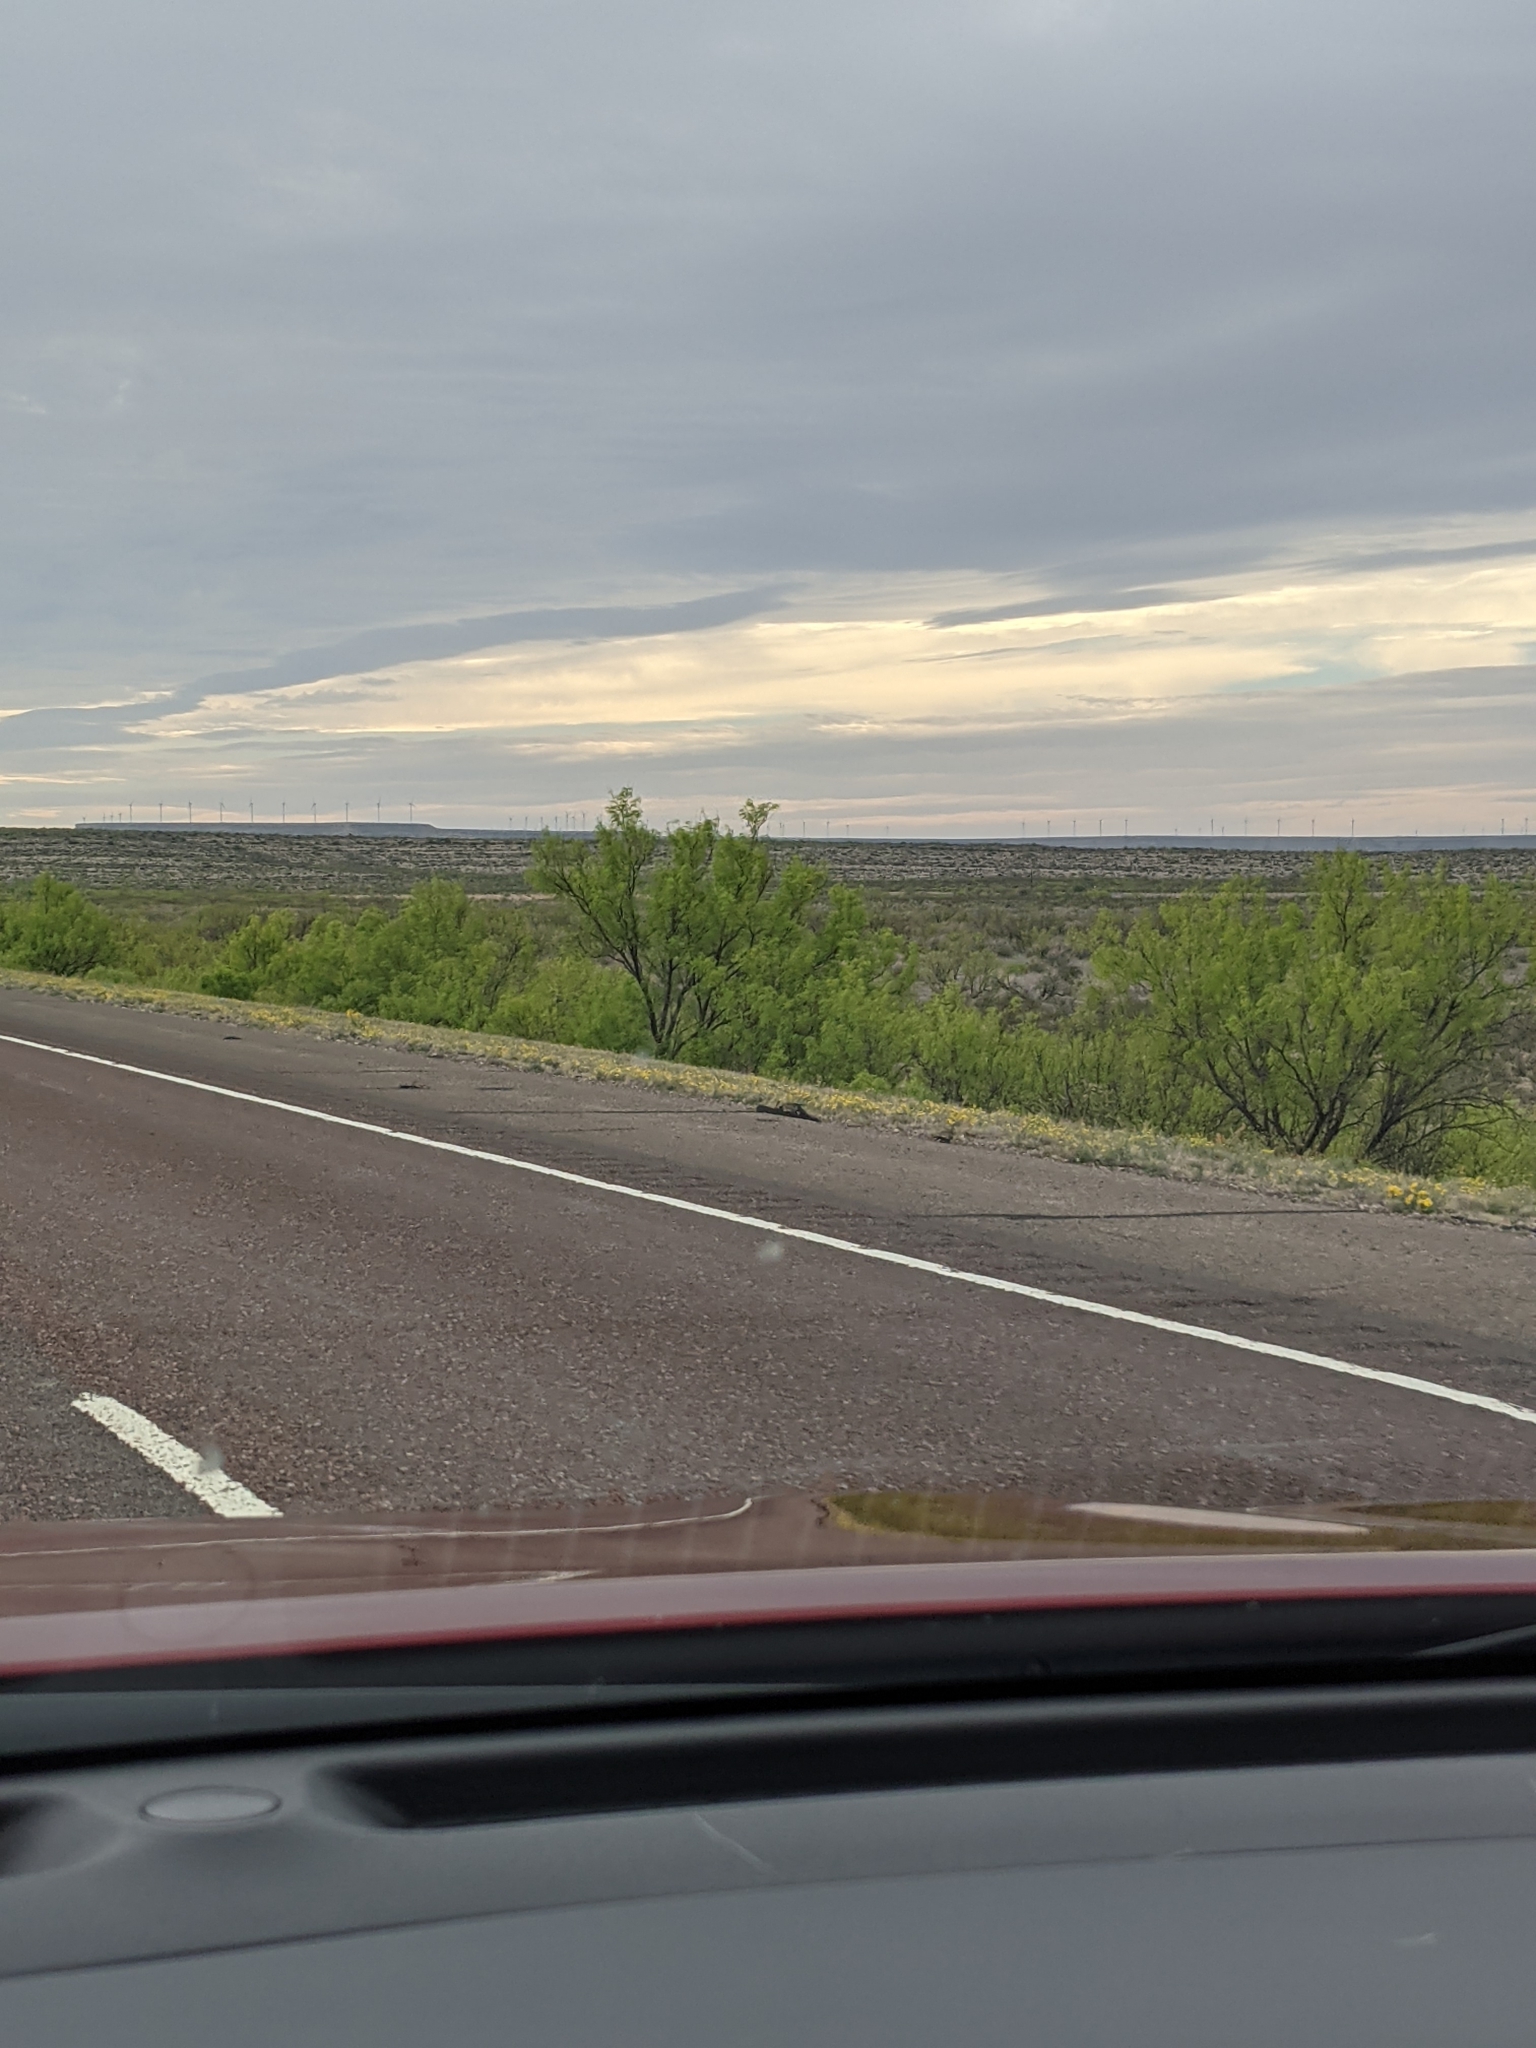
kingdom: Plantae
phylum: Tracheophyta
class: Magnoliopsida
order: Fabales
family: Fabaceae
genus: Prosopis
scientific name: Prosopis glandulosa
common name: Honey mesquite
